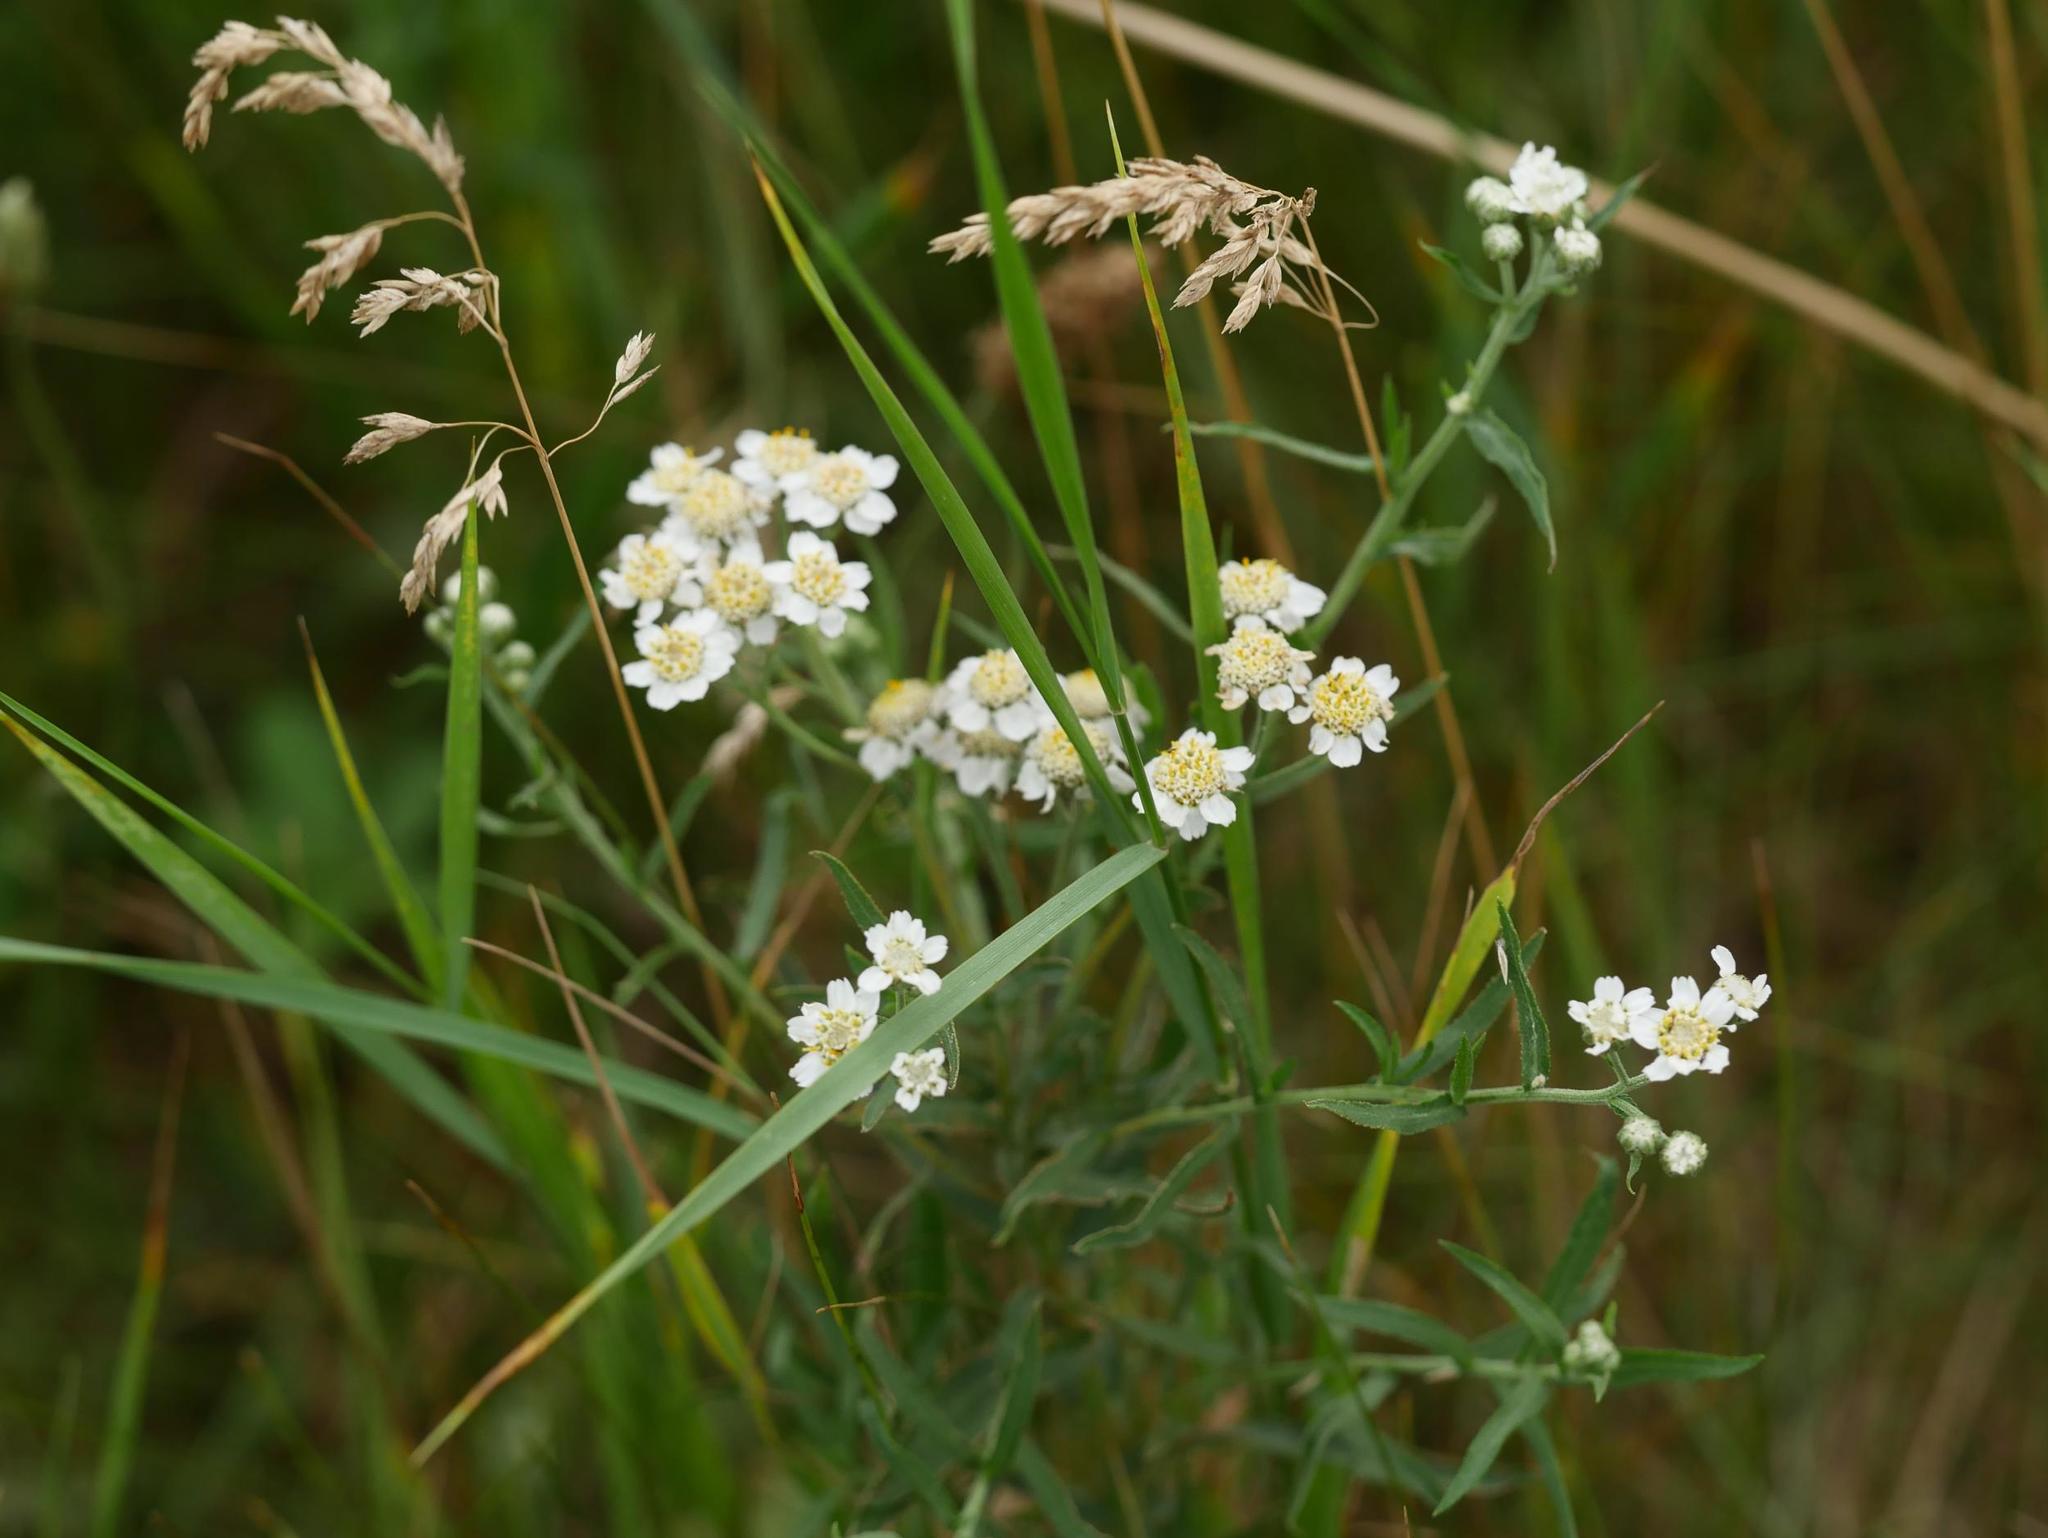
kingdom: Plantae
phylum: Tracheophyta
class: Magnoliopsida
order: Asterales
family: Asteraceae
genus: Achillea
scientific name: Achillea ptarmica
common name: Sneezeweed
